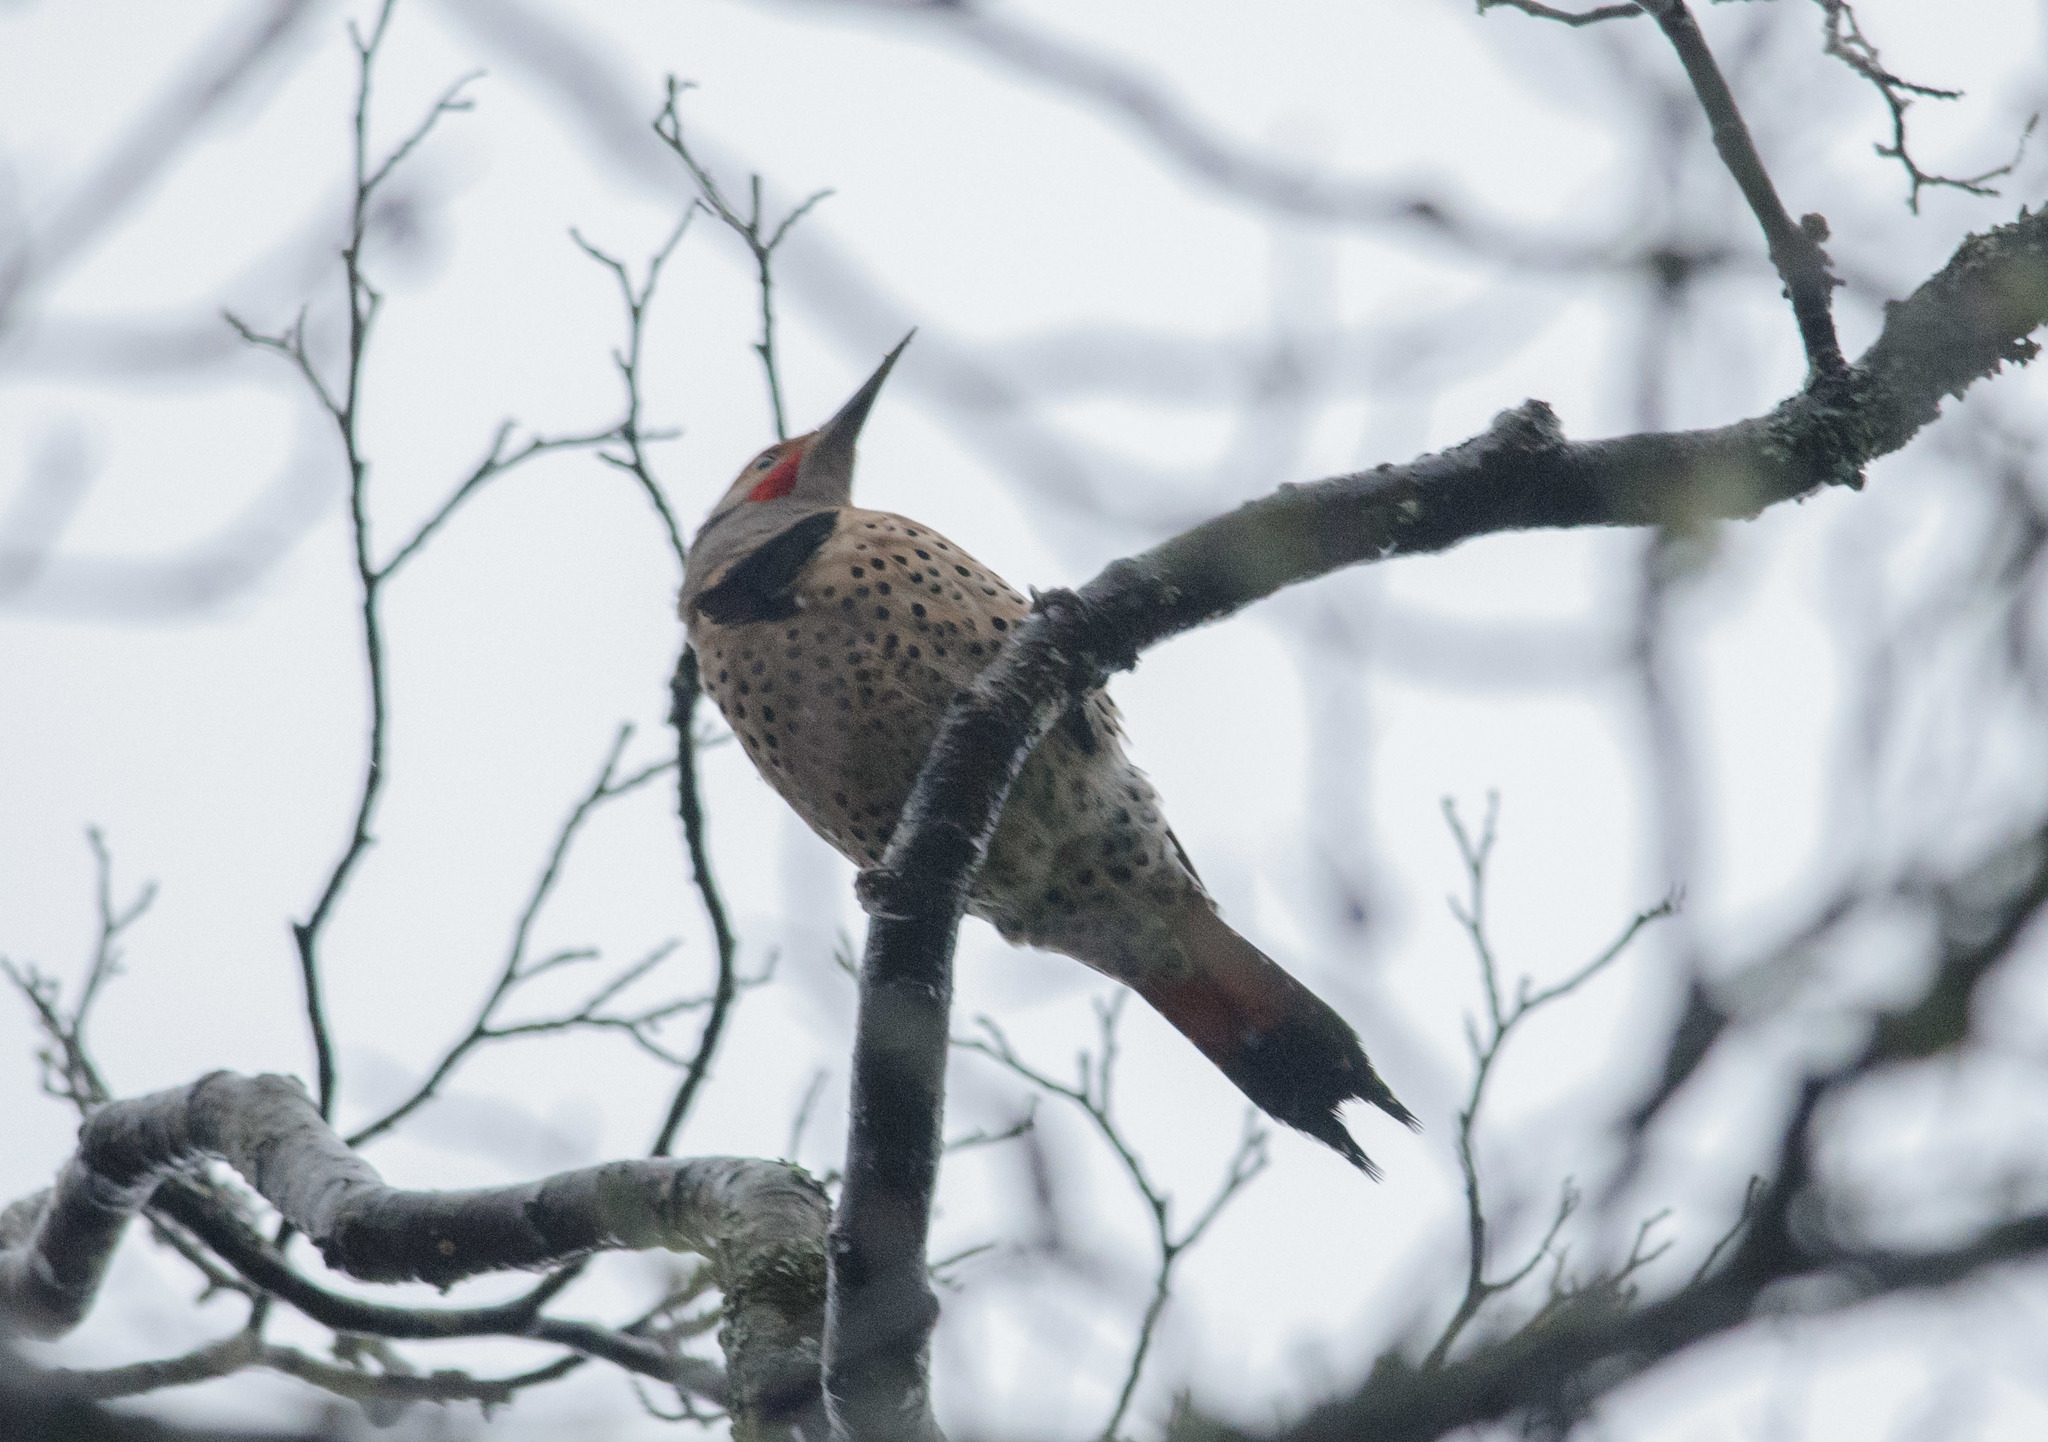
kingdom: Animalia
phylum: Chordata
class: Aves
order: Piciformes
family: Picidae
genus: Colaptes
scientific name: Colaptes auratus
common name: Northern flicker
